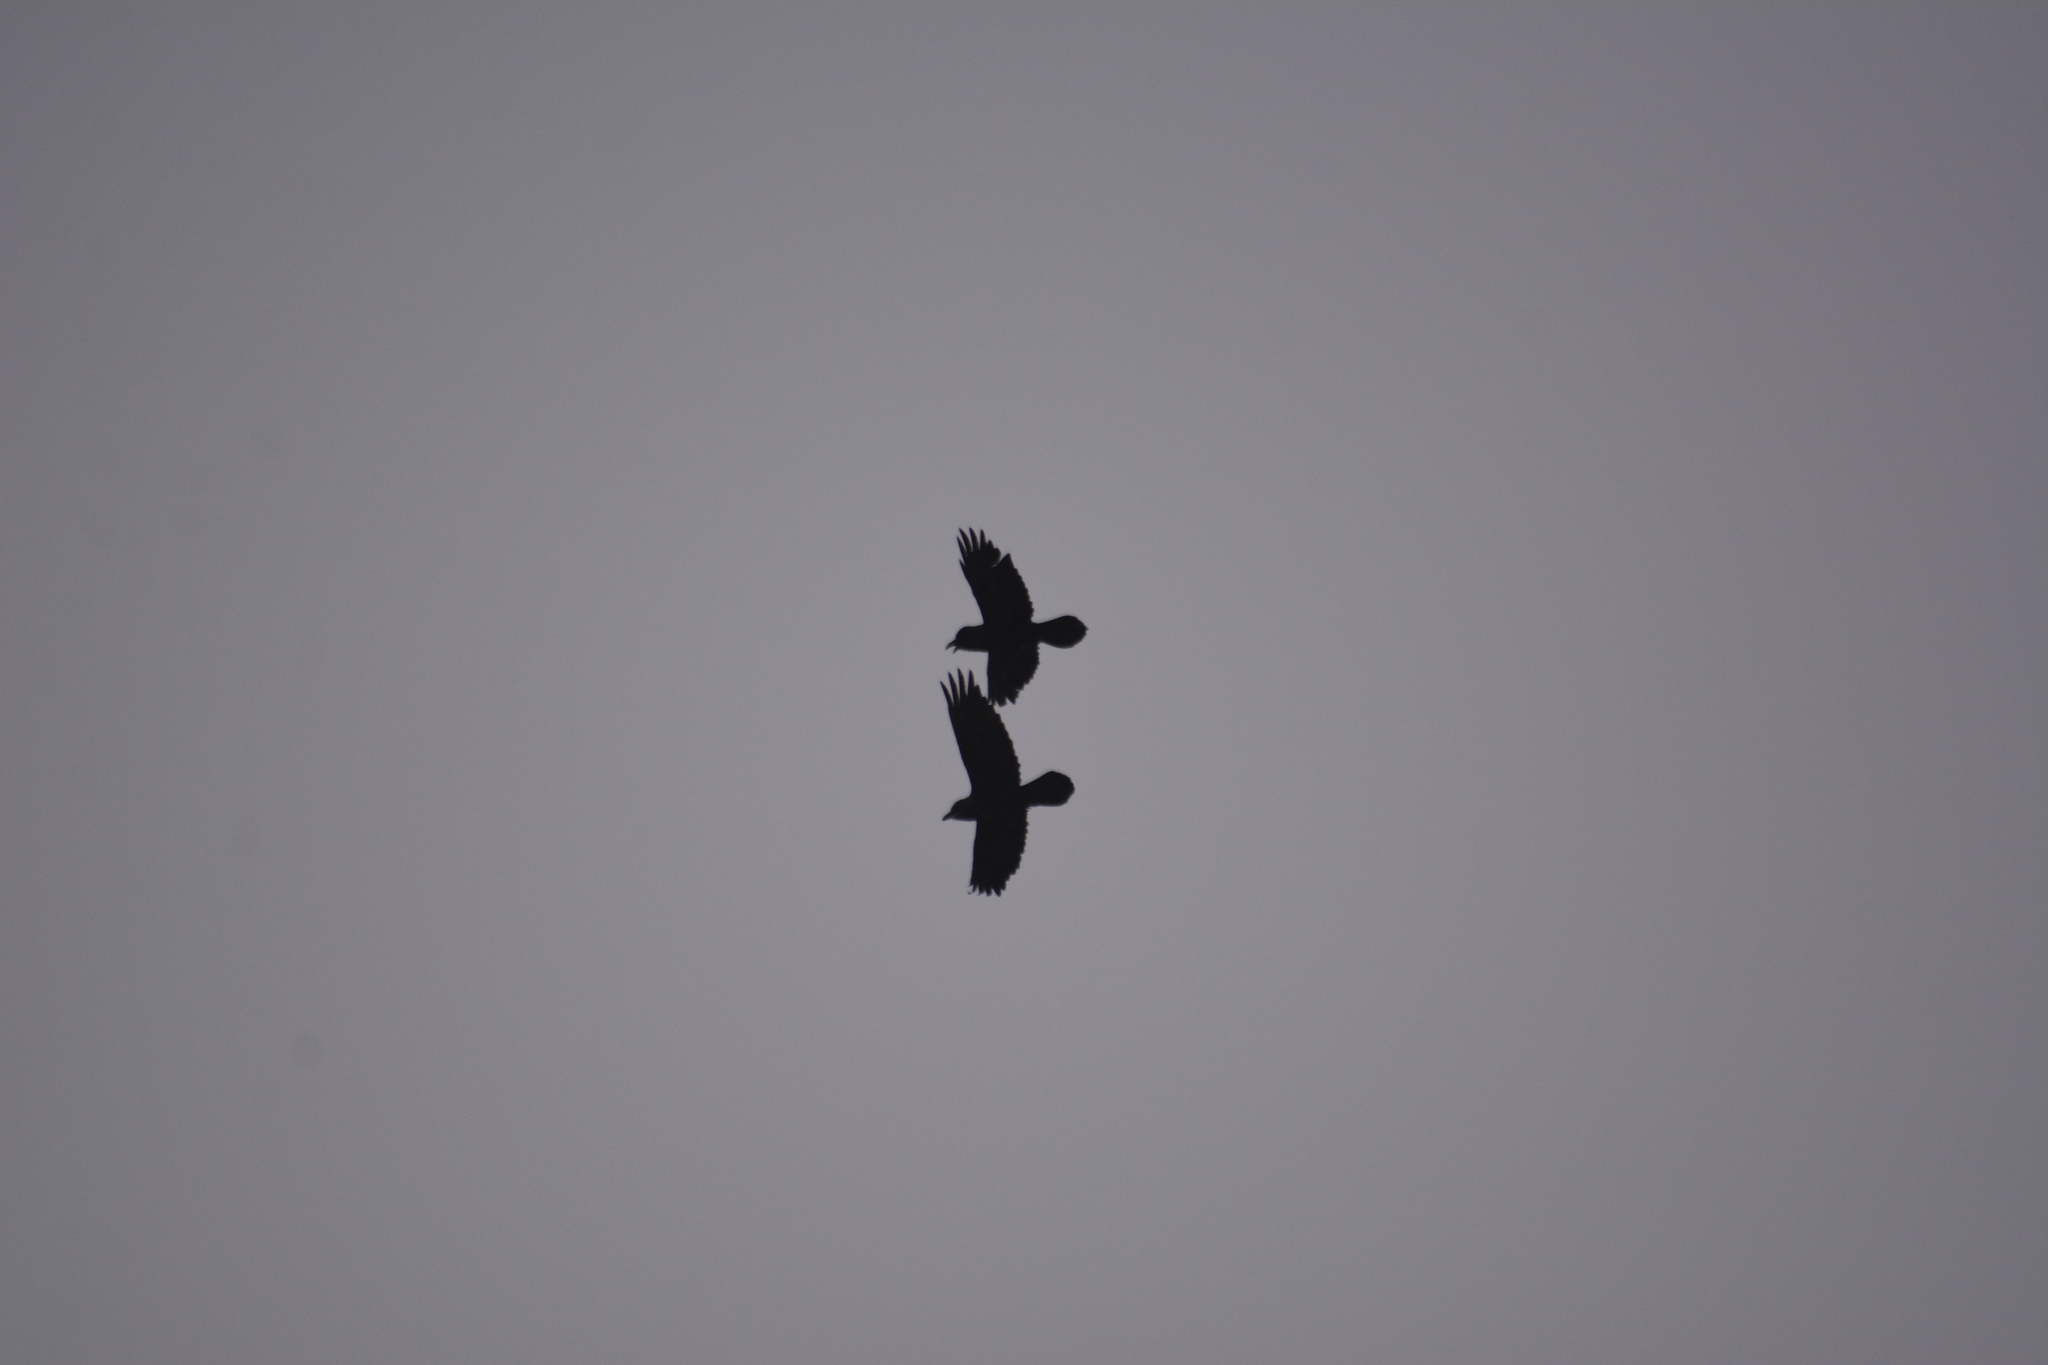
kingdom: Animalia
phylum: Chordata
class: Aves
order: Passeriformes
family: Corvidae
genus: Corvus
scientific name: Corvus corax
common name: Common raven
